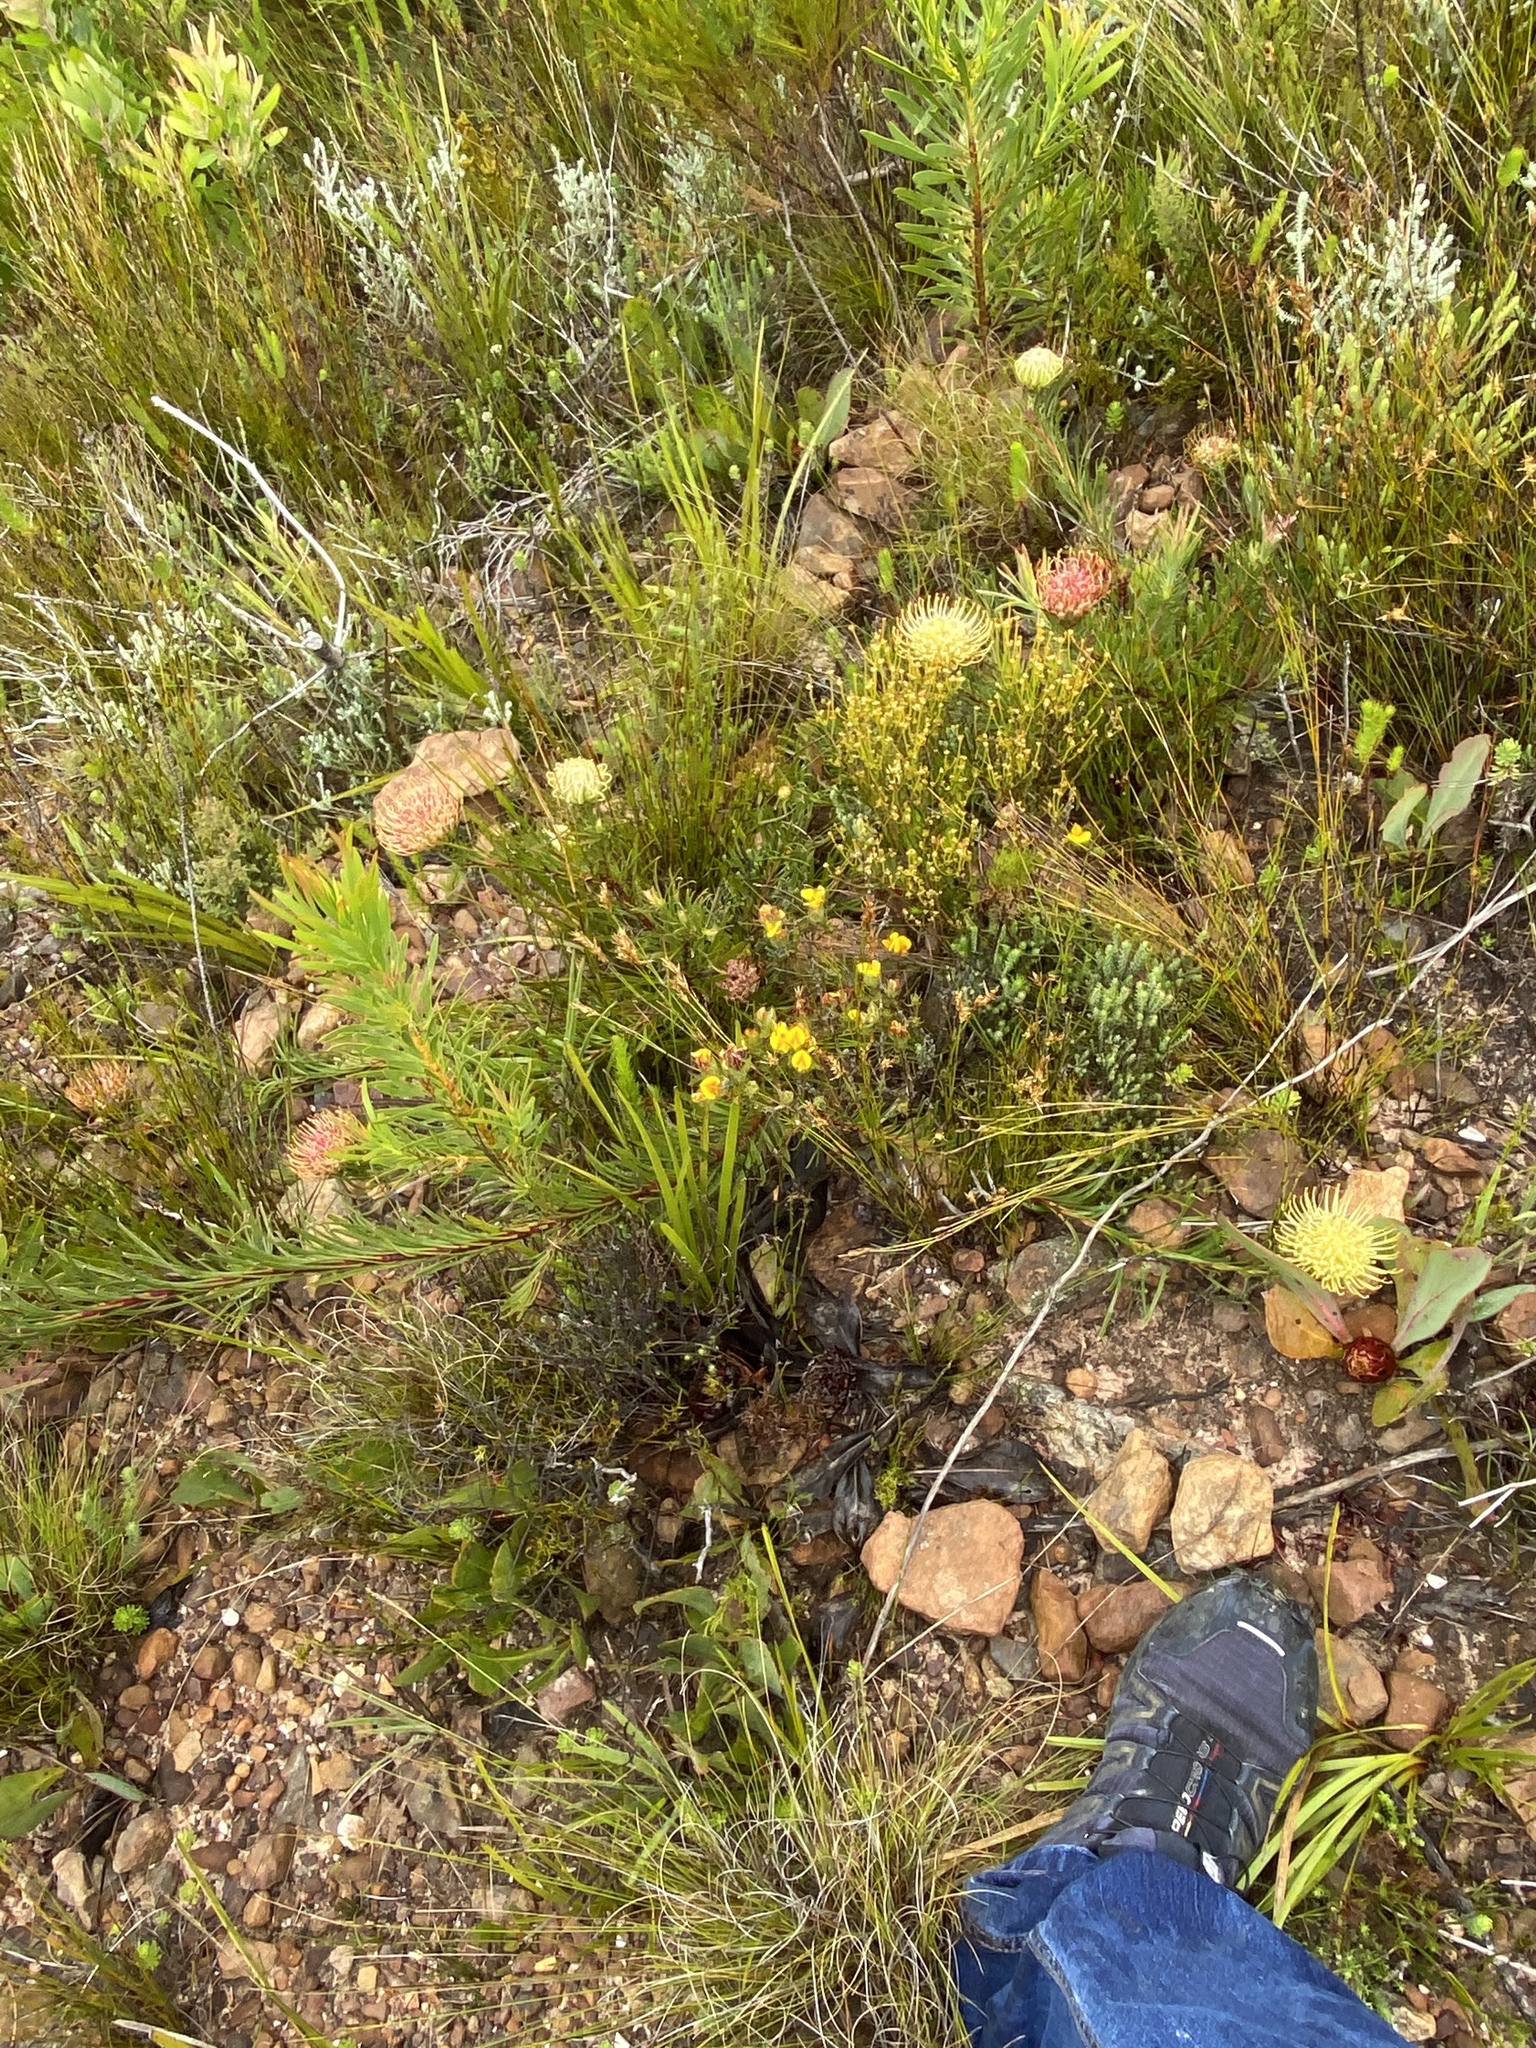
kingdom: Plantae
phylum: Tracheophyta
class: Magnoliopsida
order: Proteales
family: Proteaceae
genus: Leucospermum
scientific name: Leucospermum lineare
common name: Needle-leaf pincushion
